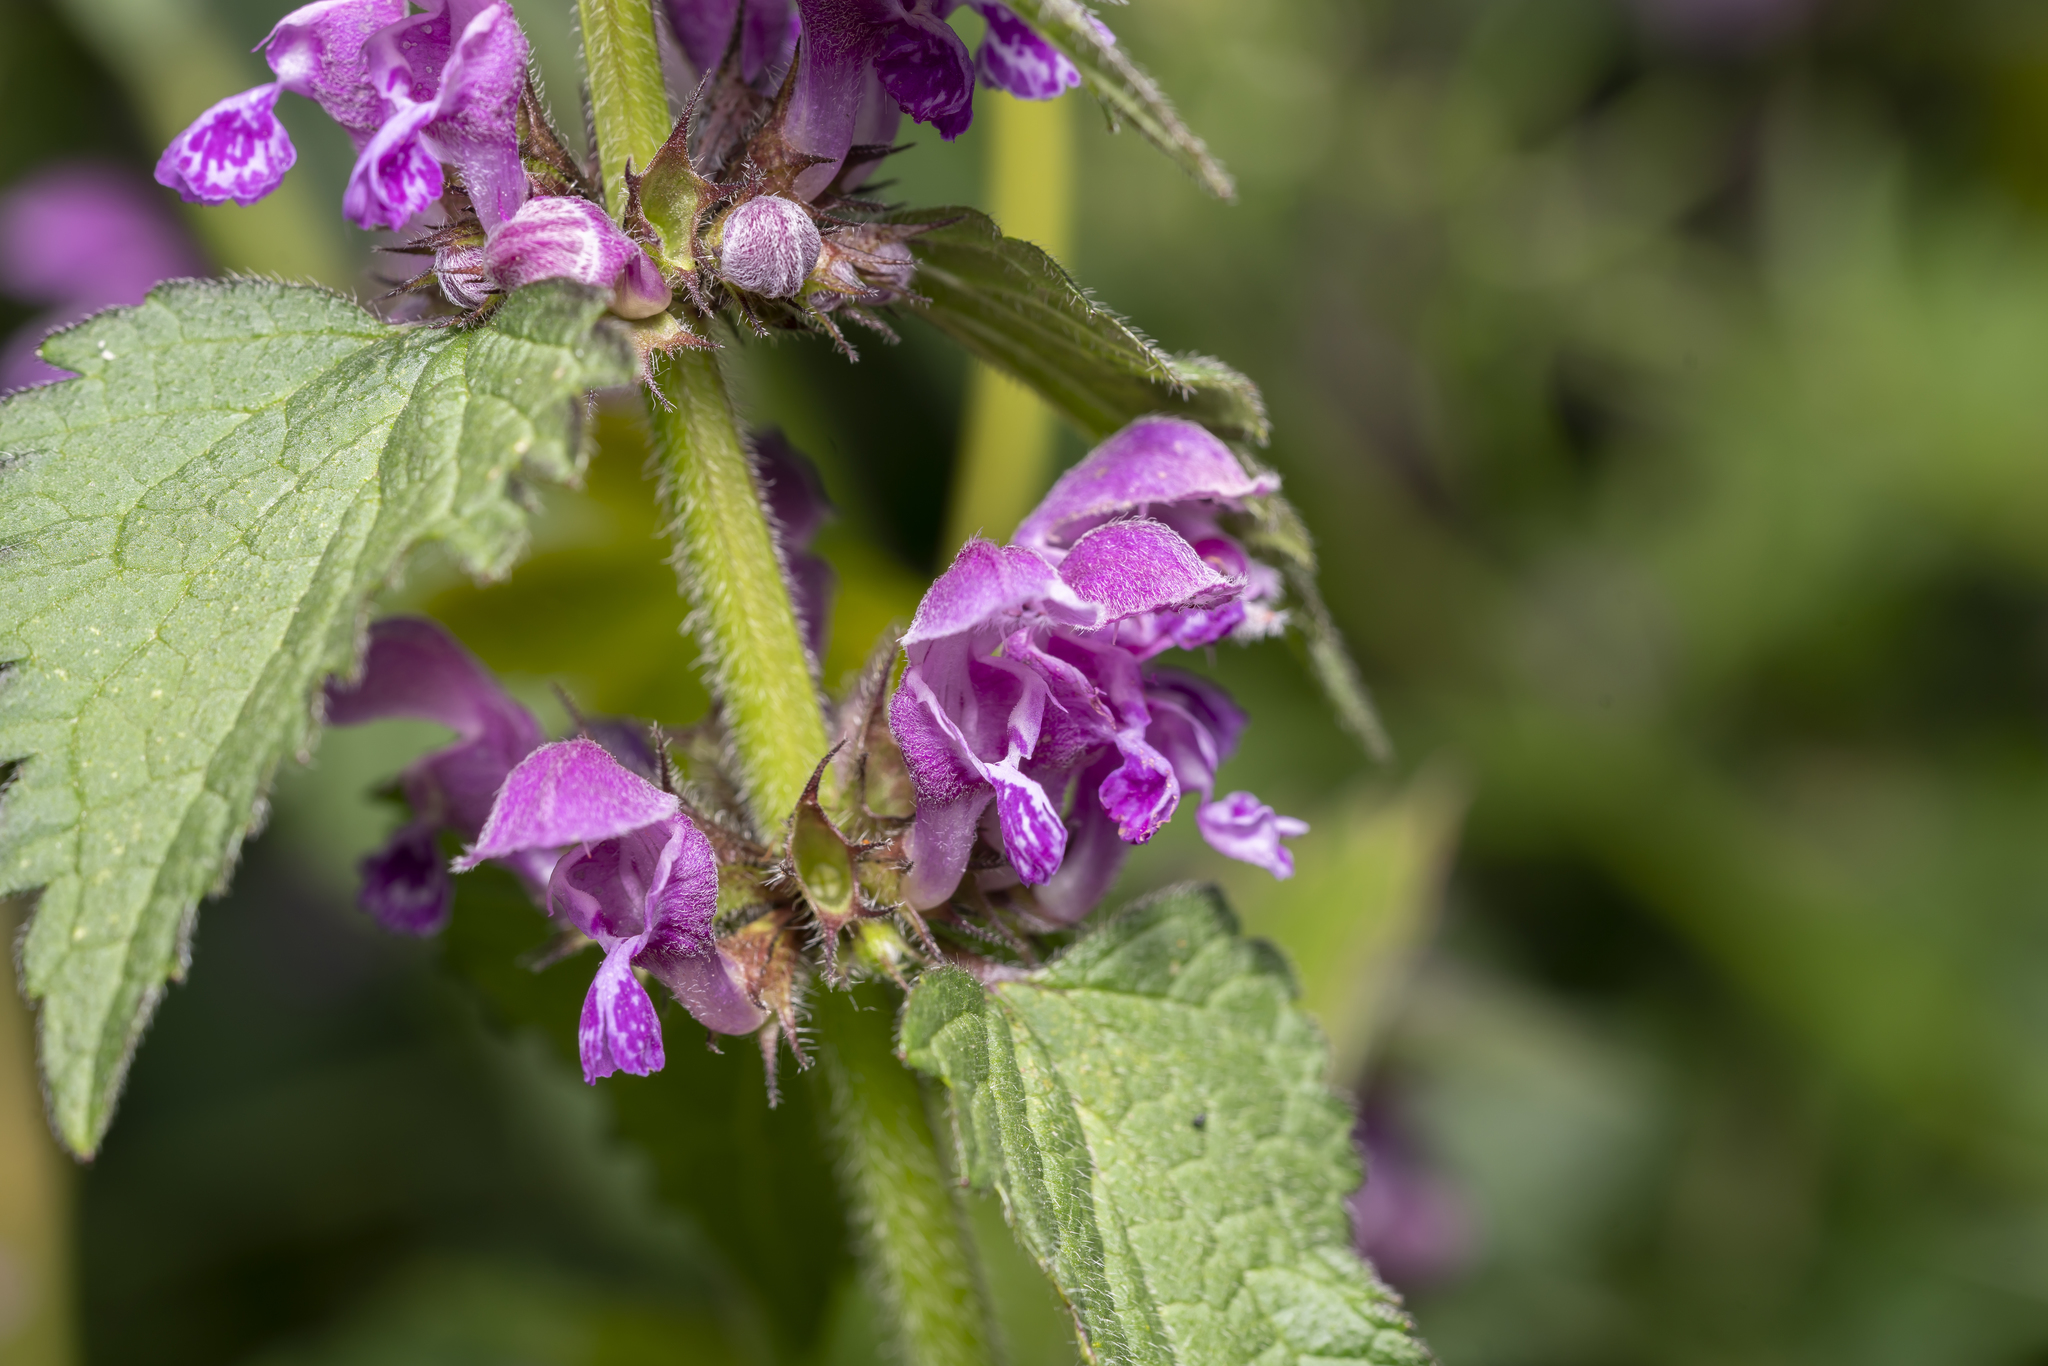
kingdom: Plantae
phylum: Tracheophyta
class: Magnoliopsida
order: Lamiales
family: Lamiaceae
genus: Lamium
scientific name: Lamium maculatum
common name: Spotted dead-nettle
